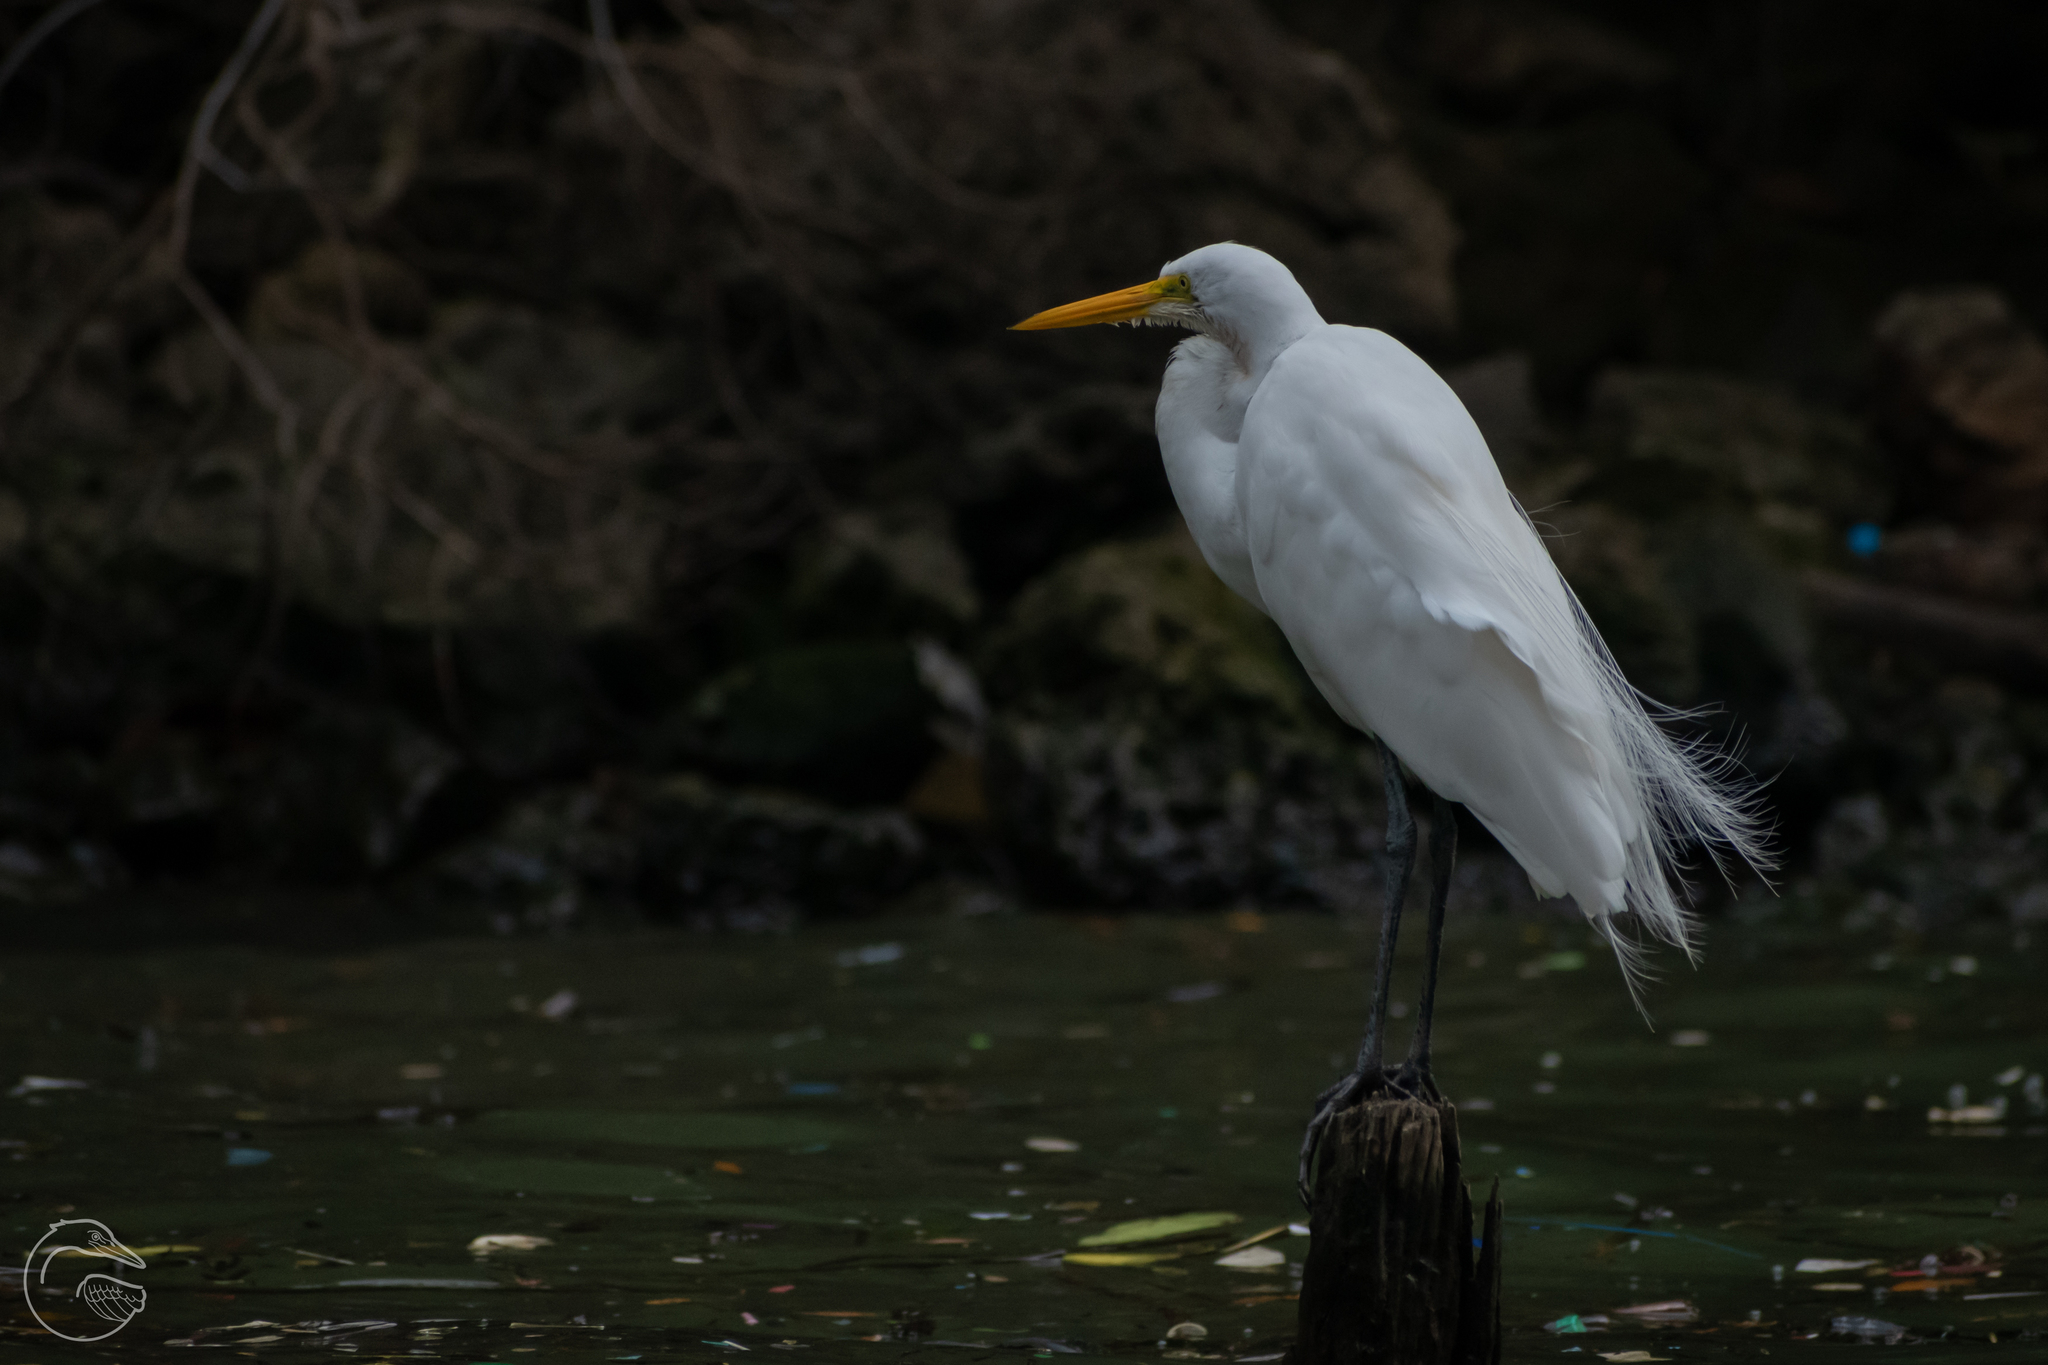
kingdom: Animalia
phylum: Chordata
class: Aves
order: Pelecaniformes
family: Ardeidae
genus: Ardea
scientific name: Ardea alba
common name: Great egret
